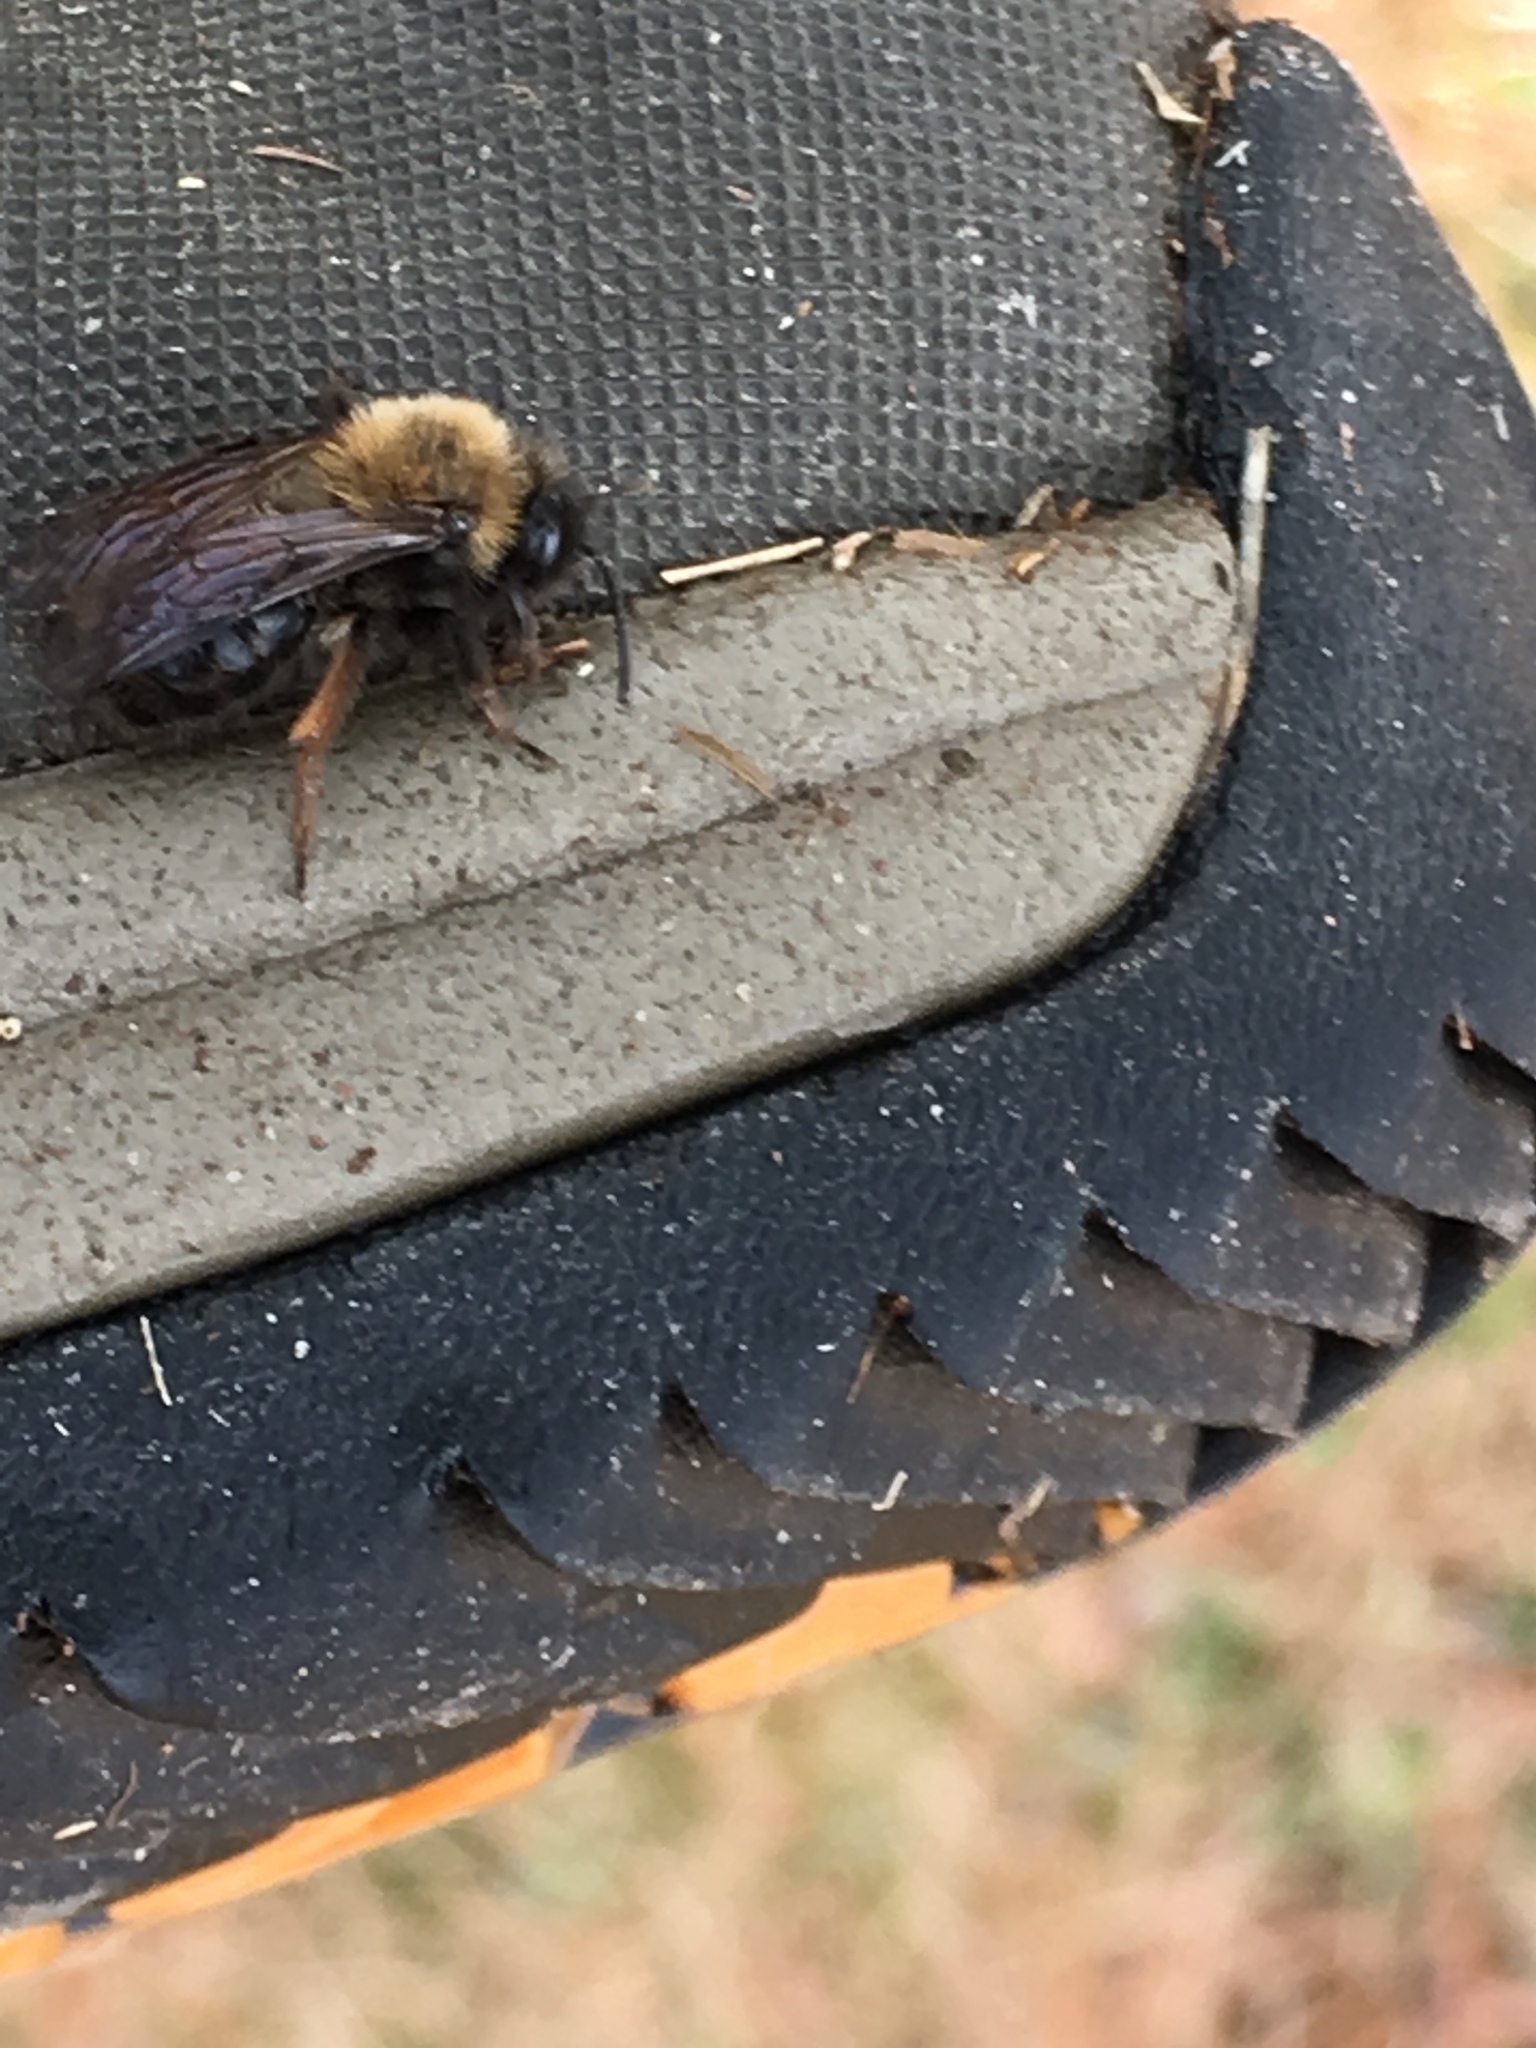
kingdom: Animalia
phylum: Arthropoda
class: Insecta
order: Hymenoptera
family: Andrenidae
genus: Andrena
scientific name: Andrena clarkella
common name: Clarke's mining bee
